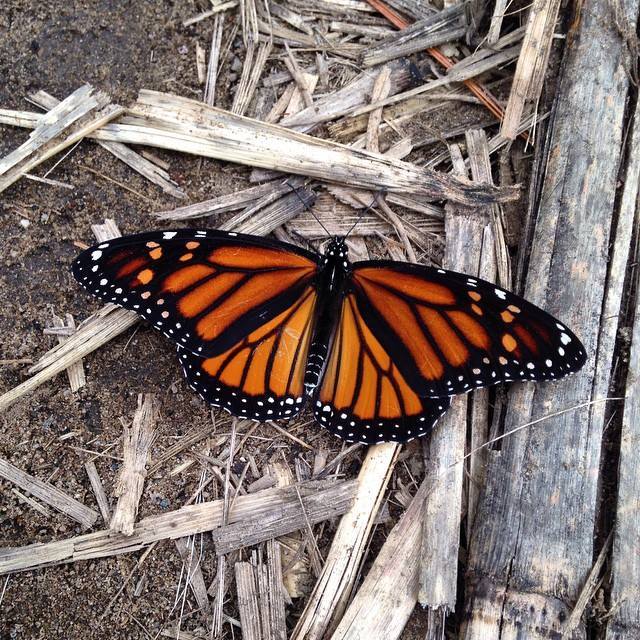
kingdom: Animalia
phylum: Arthropoda
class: Insecta
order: Lepidoptera
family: Nymphalidae
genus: Danaus
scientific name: Danaus plexippus
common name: Monarch
